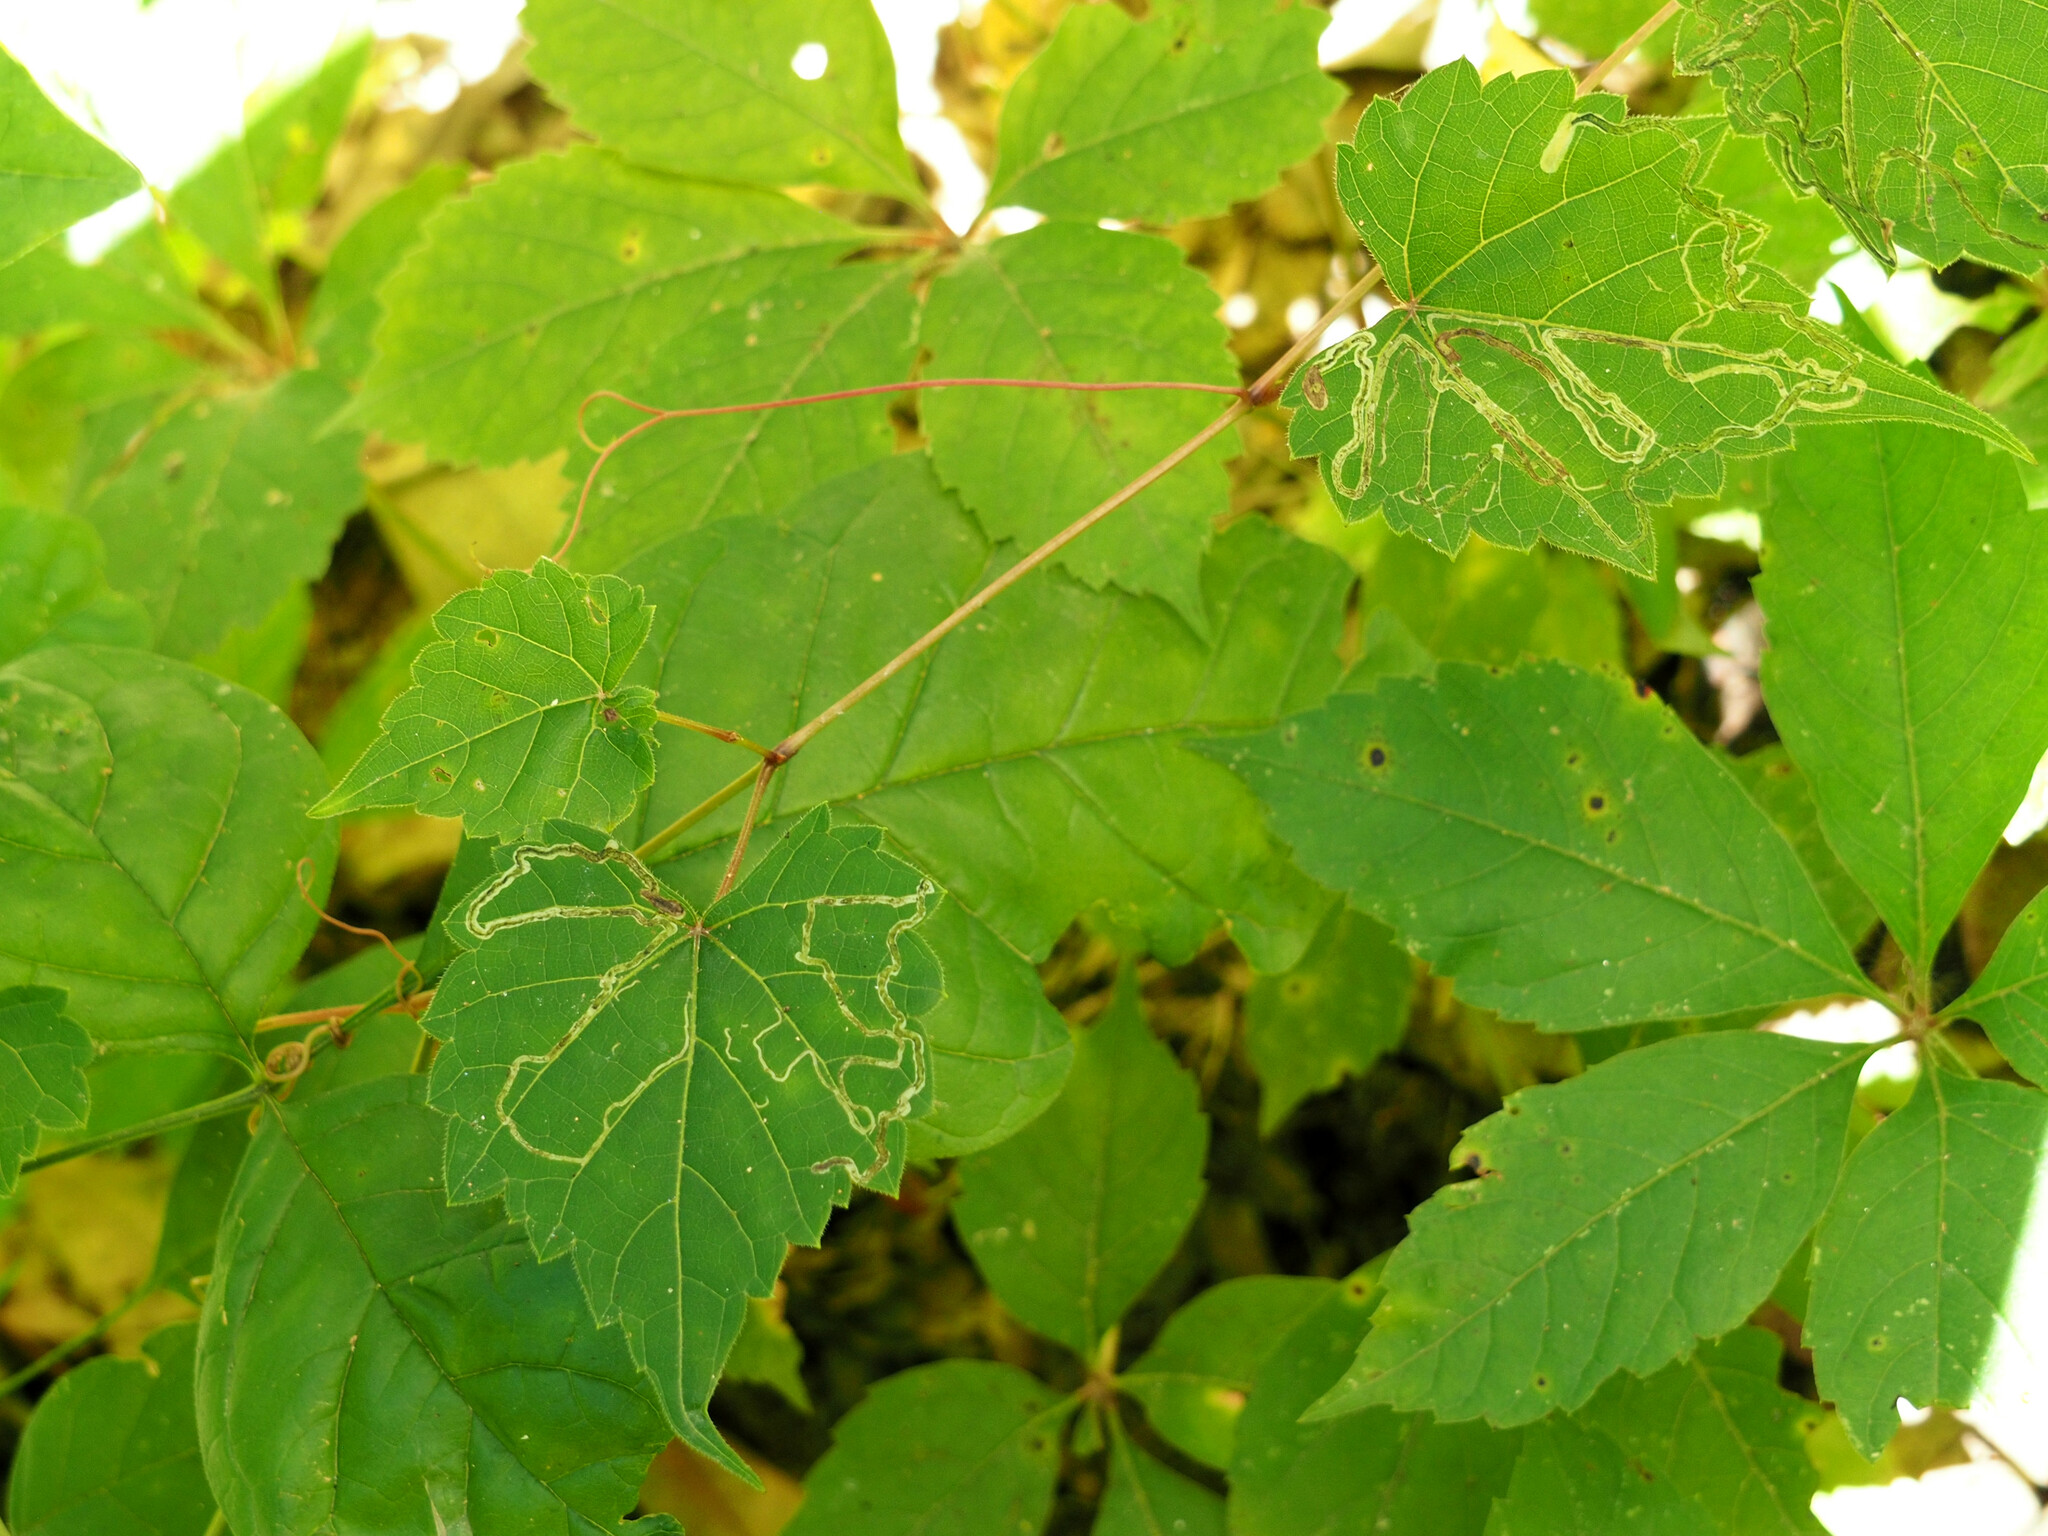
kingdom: Animalia
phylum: Arthropoda
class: Insecta
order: Lepidoptera
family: Gracillariidae
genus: Phyllocnistis
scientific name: Phyllocnistis vitifoliella
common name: Grape leaf-miner moth
